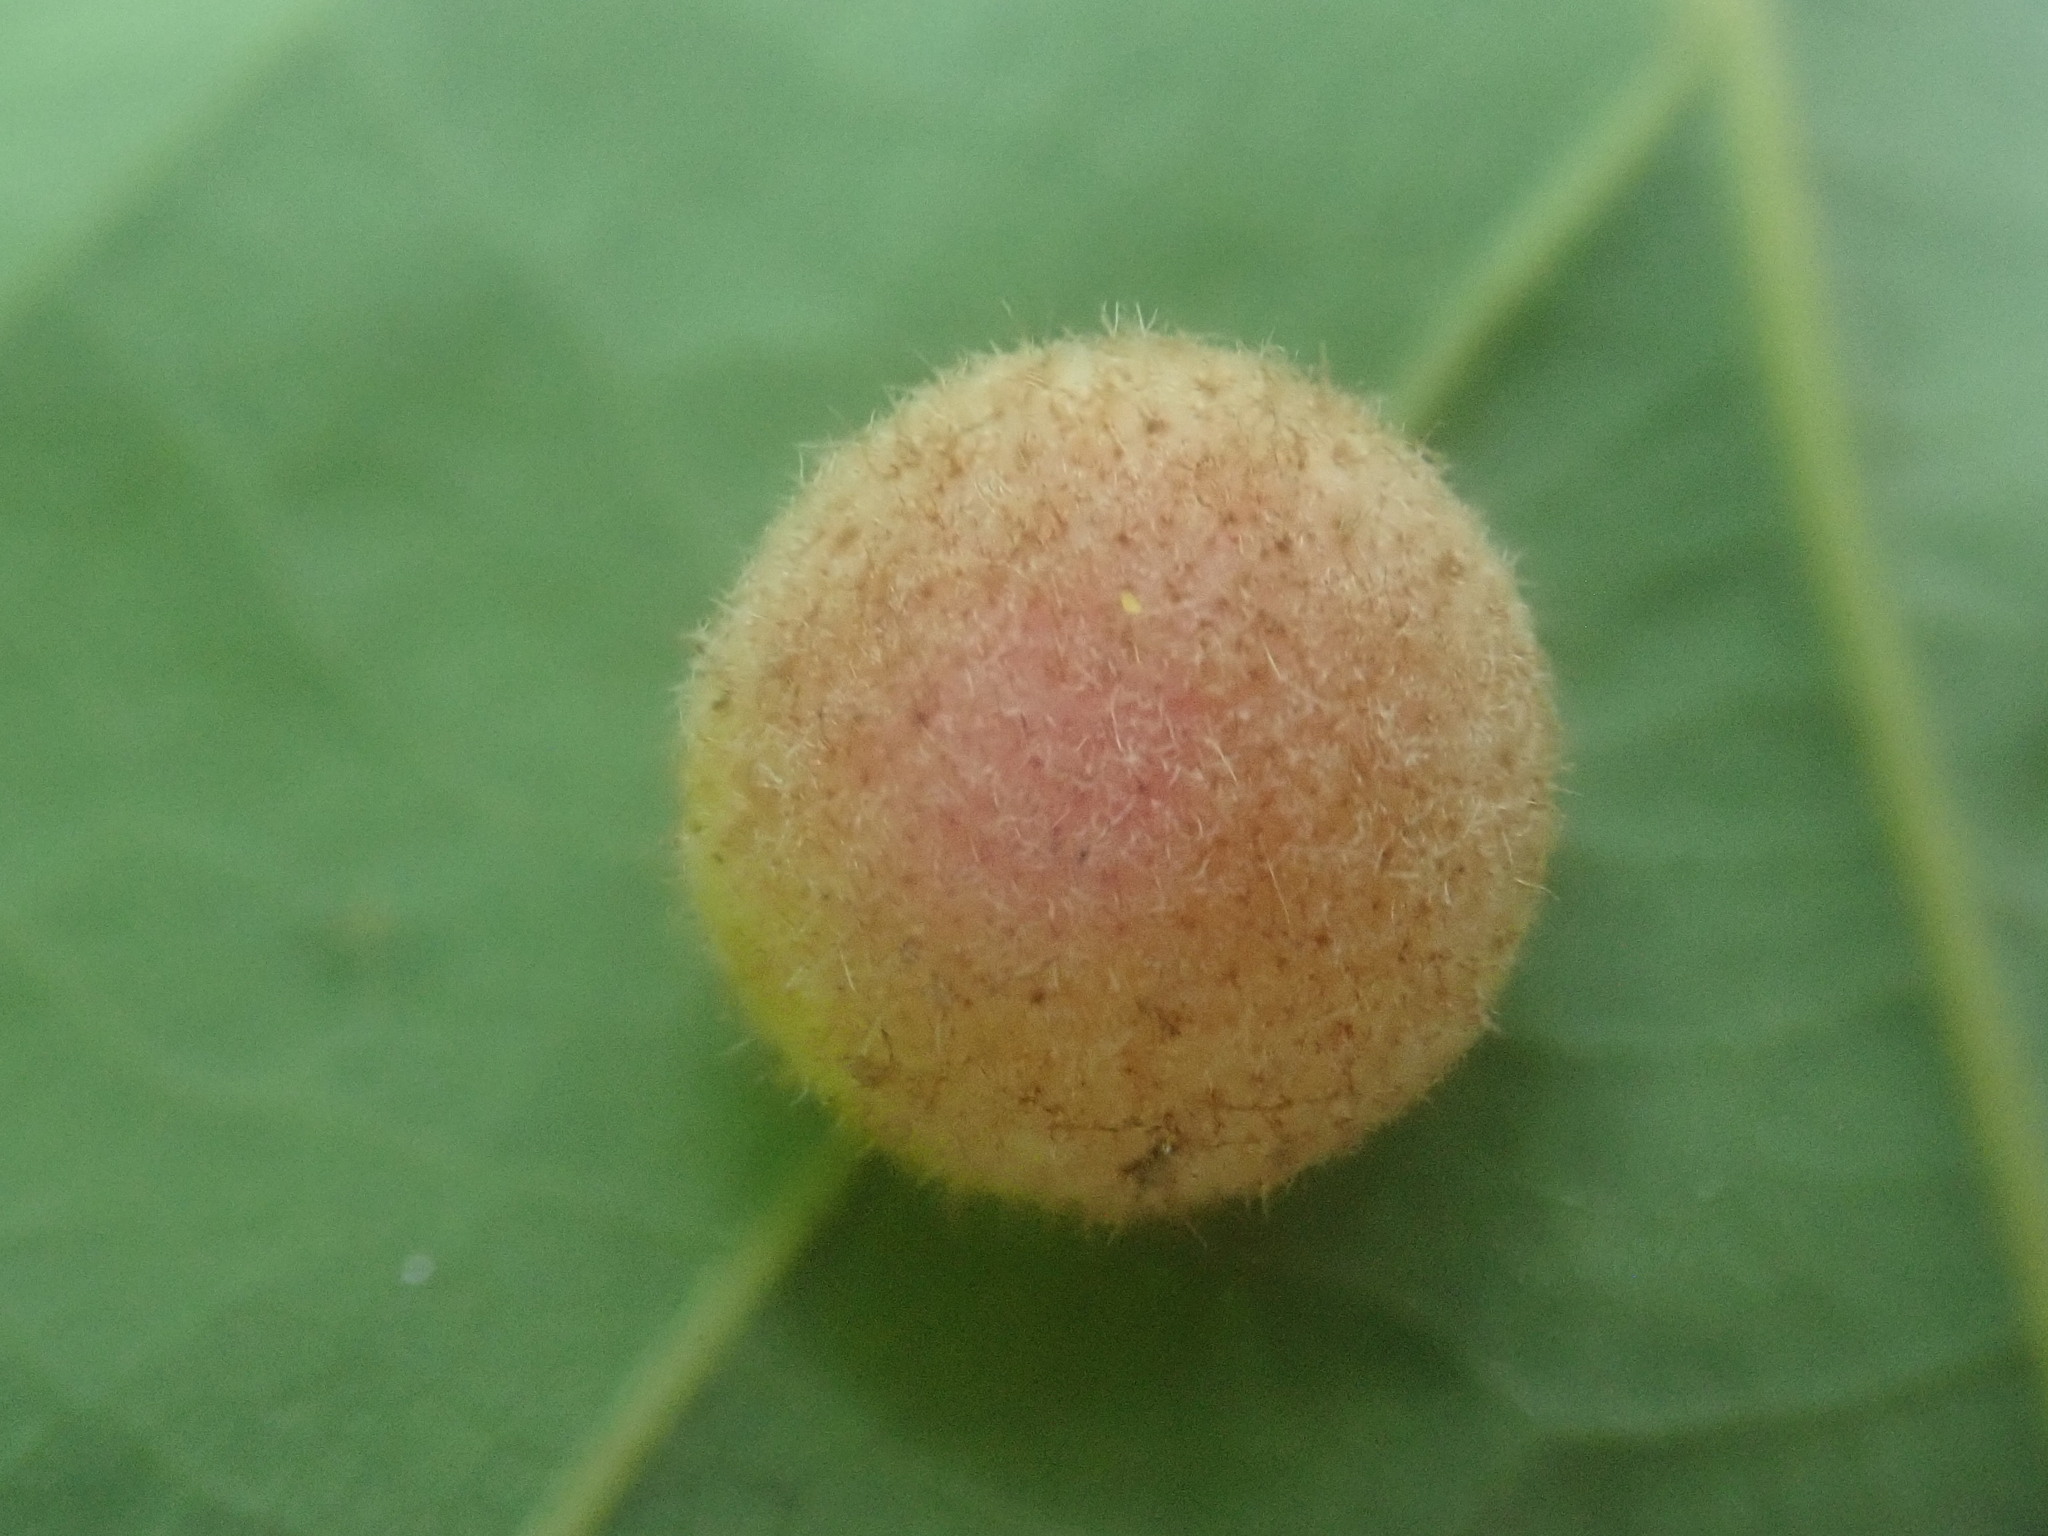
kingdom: Animalia
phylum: Arthropoda
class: Insecta
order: Hymenoptera
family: Cynipidae
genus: Philonix
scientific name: Philonix fulvicollis
